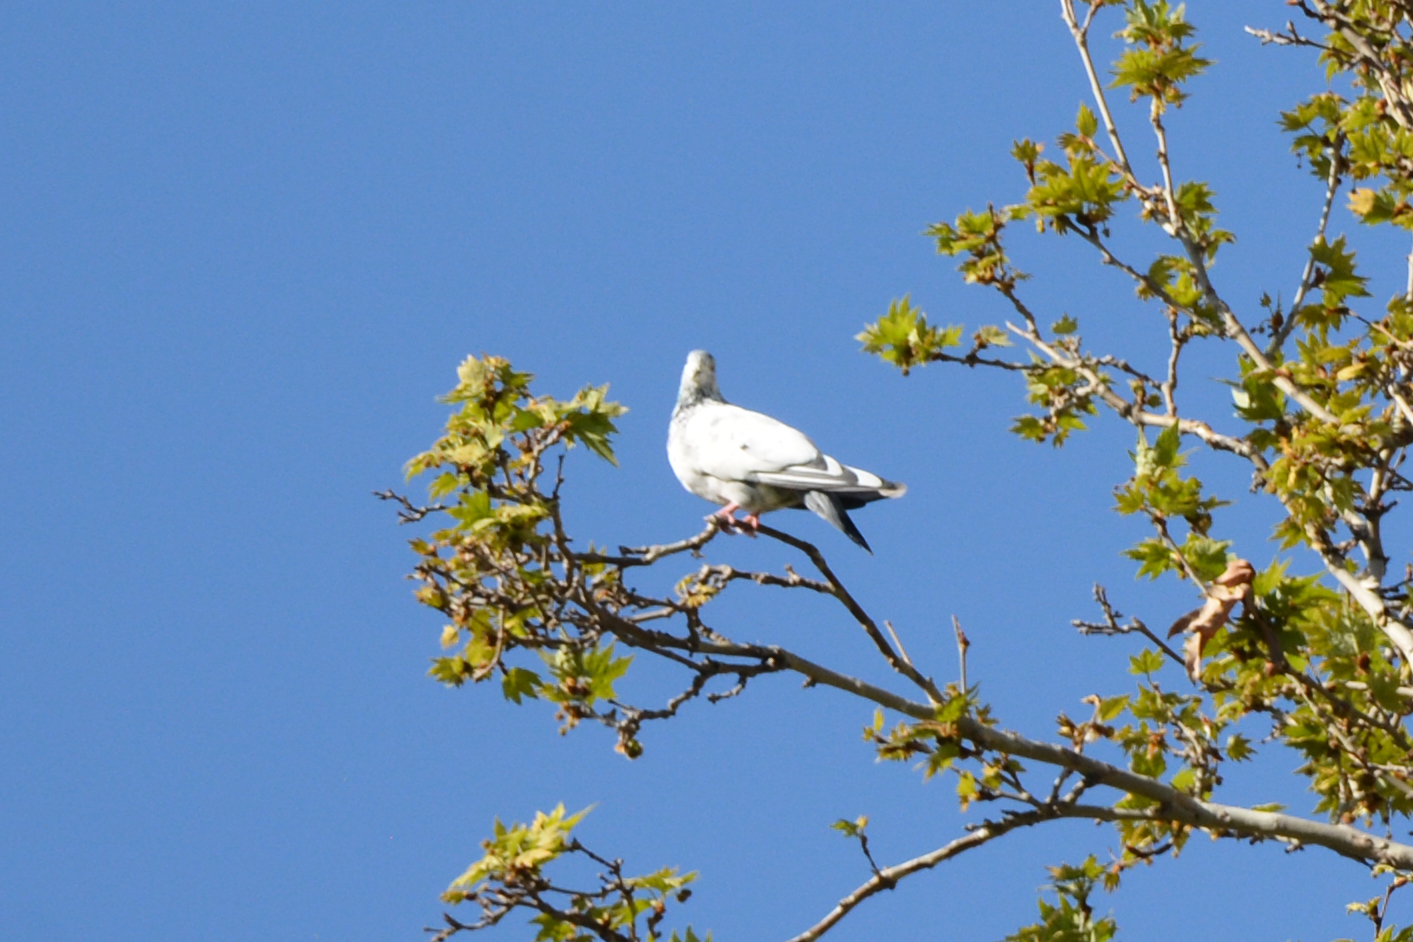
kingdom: Animalia
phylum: Chordata
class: Aves
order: Columbiformes
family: Columbidae
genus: Columba
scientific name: Columba livia
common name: Rock pigeon
